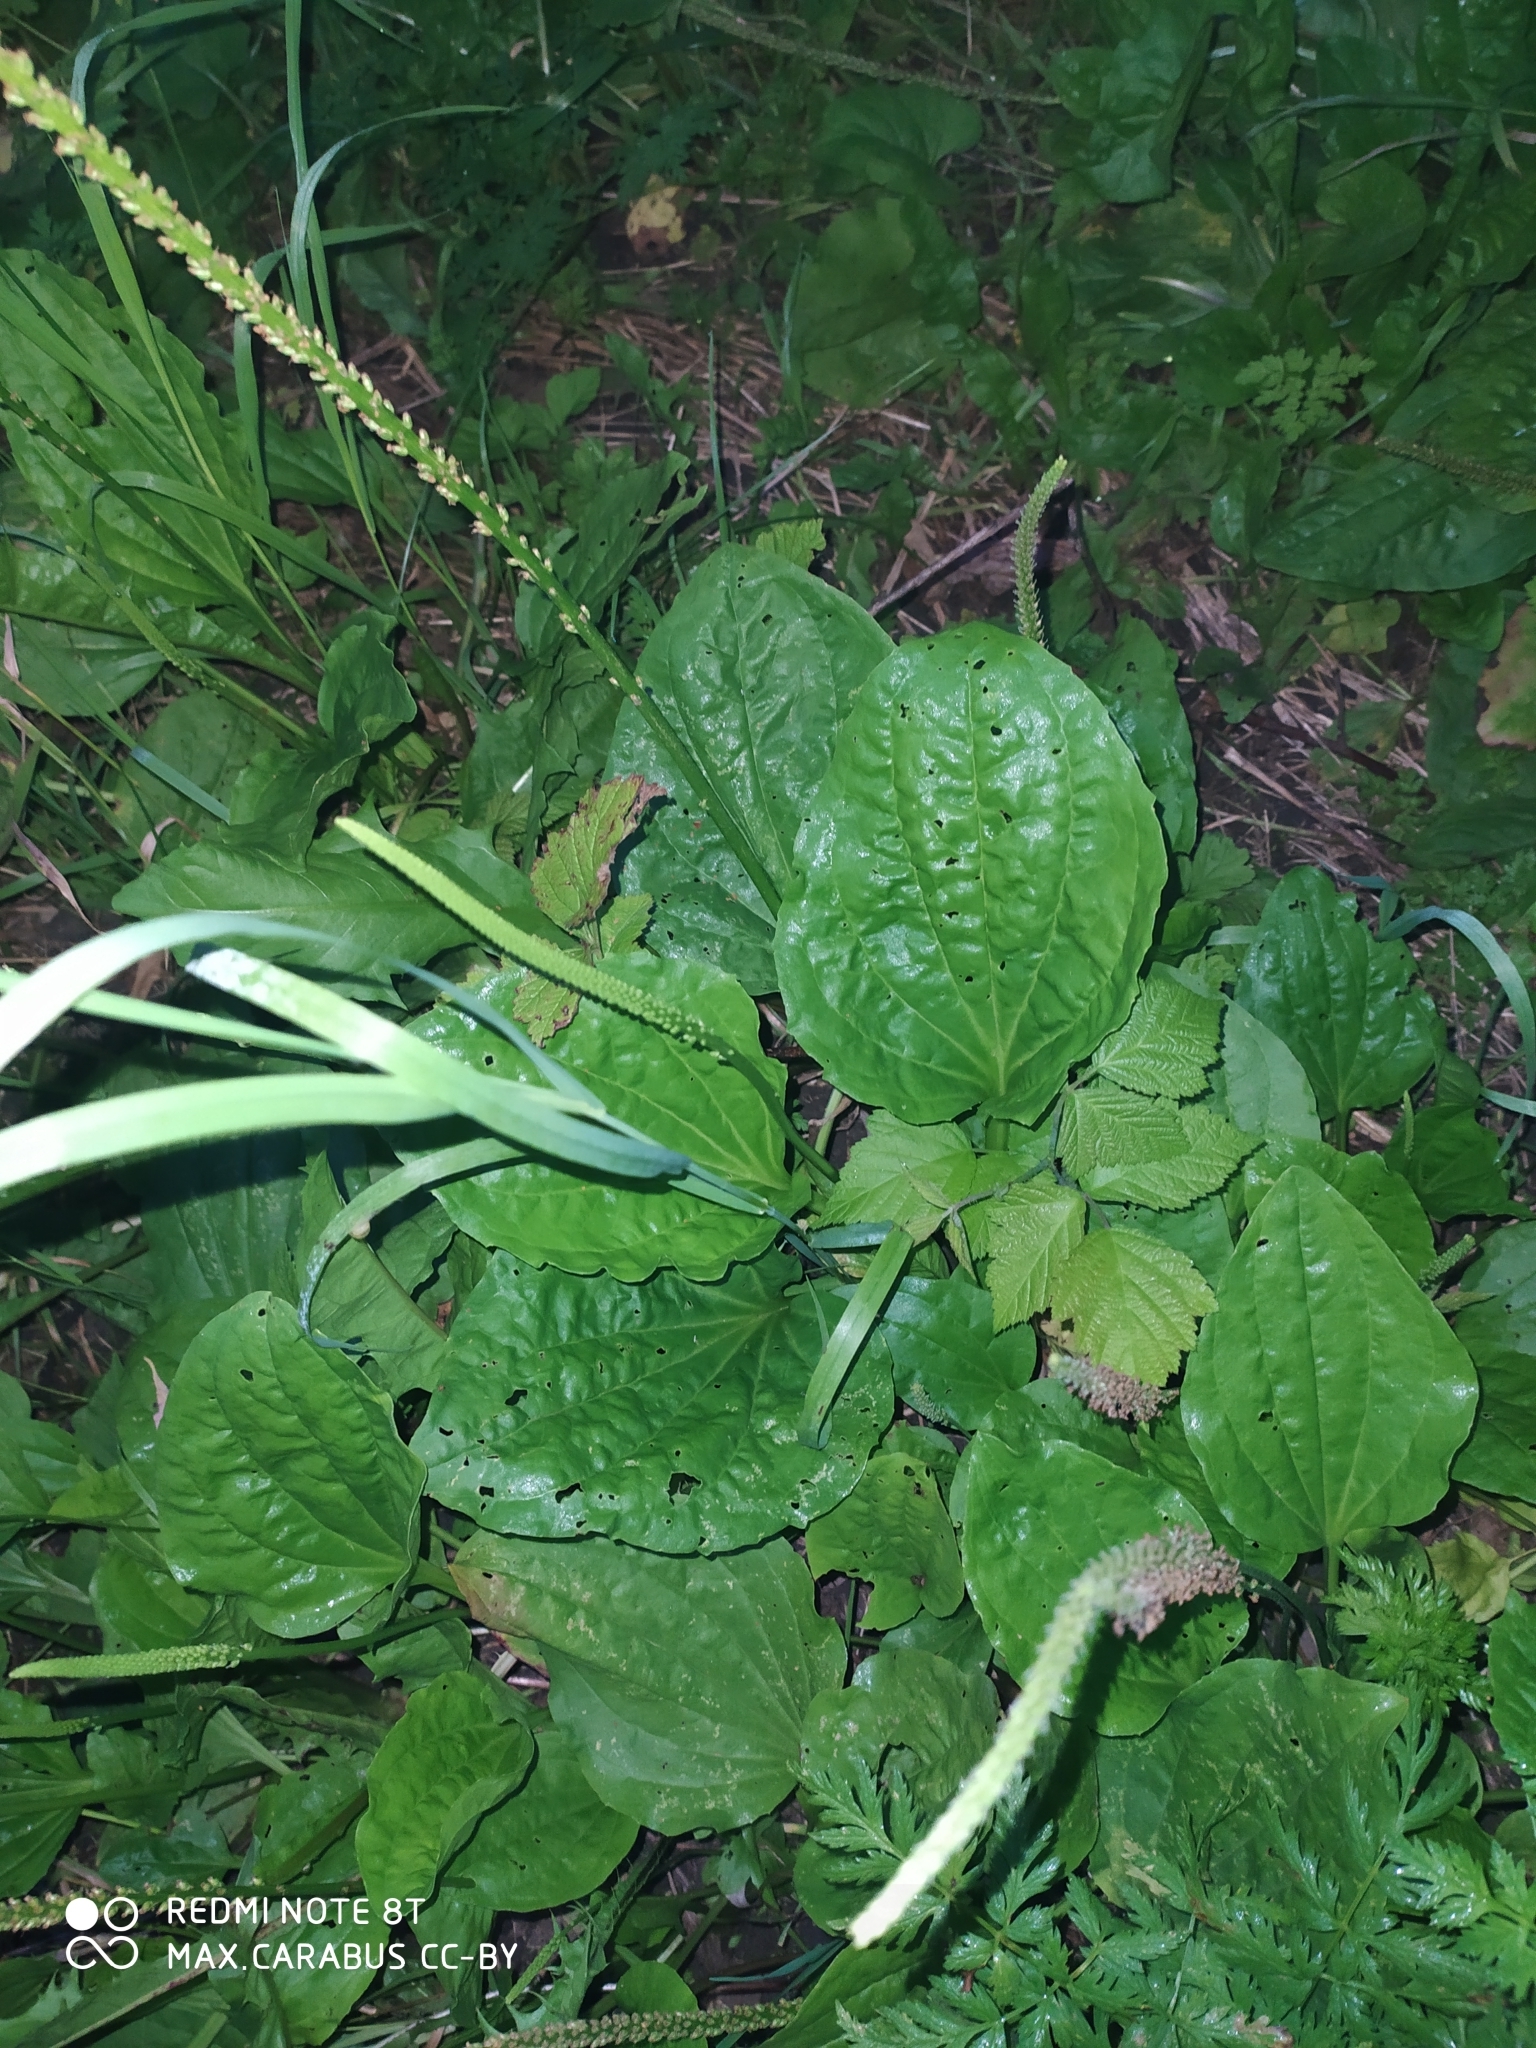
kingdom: Plantae
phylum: Tracheophyta
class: Magnoliopsida
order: Lamiales
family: Plantaginaceae
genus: Plantago
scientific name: Plantago major
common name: Common plantain
